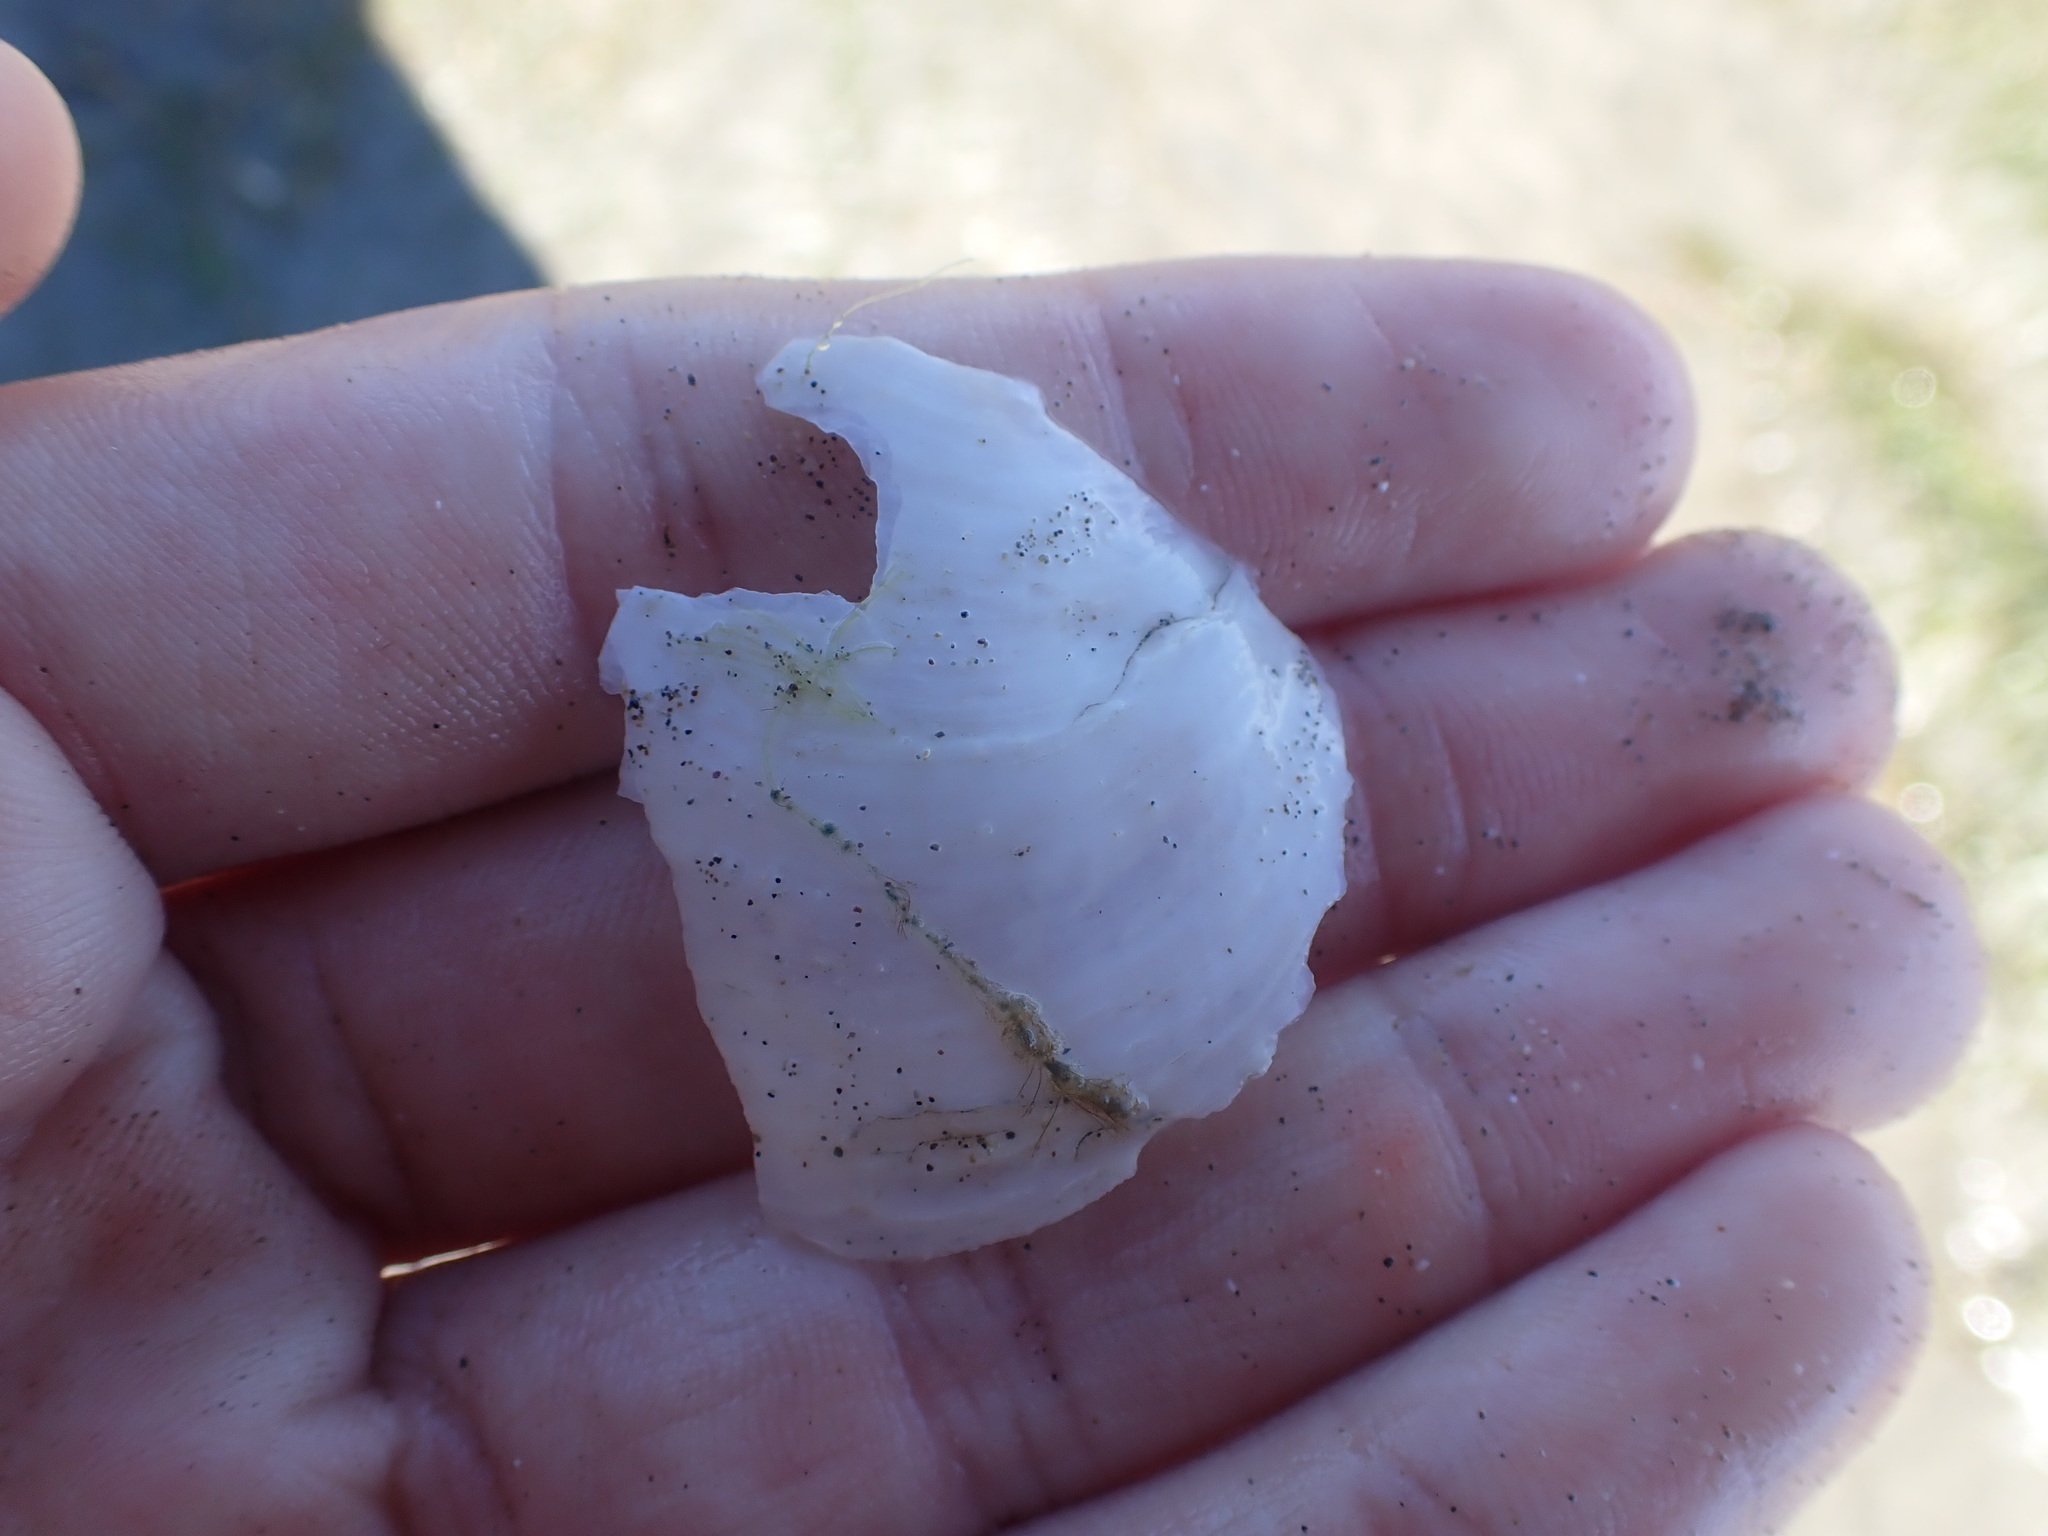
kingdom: Animalia
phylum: Mollusca
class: Bivalvia
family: Periplomatidae
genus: Offadesma
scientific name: Offadesma angasi
